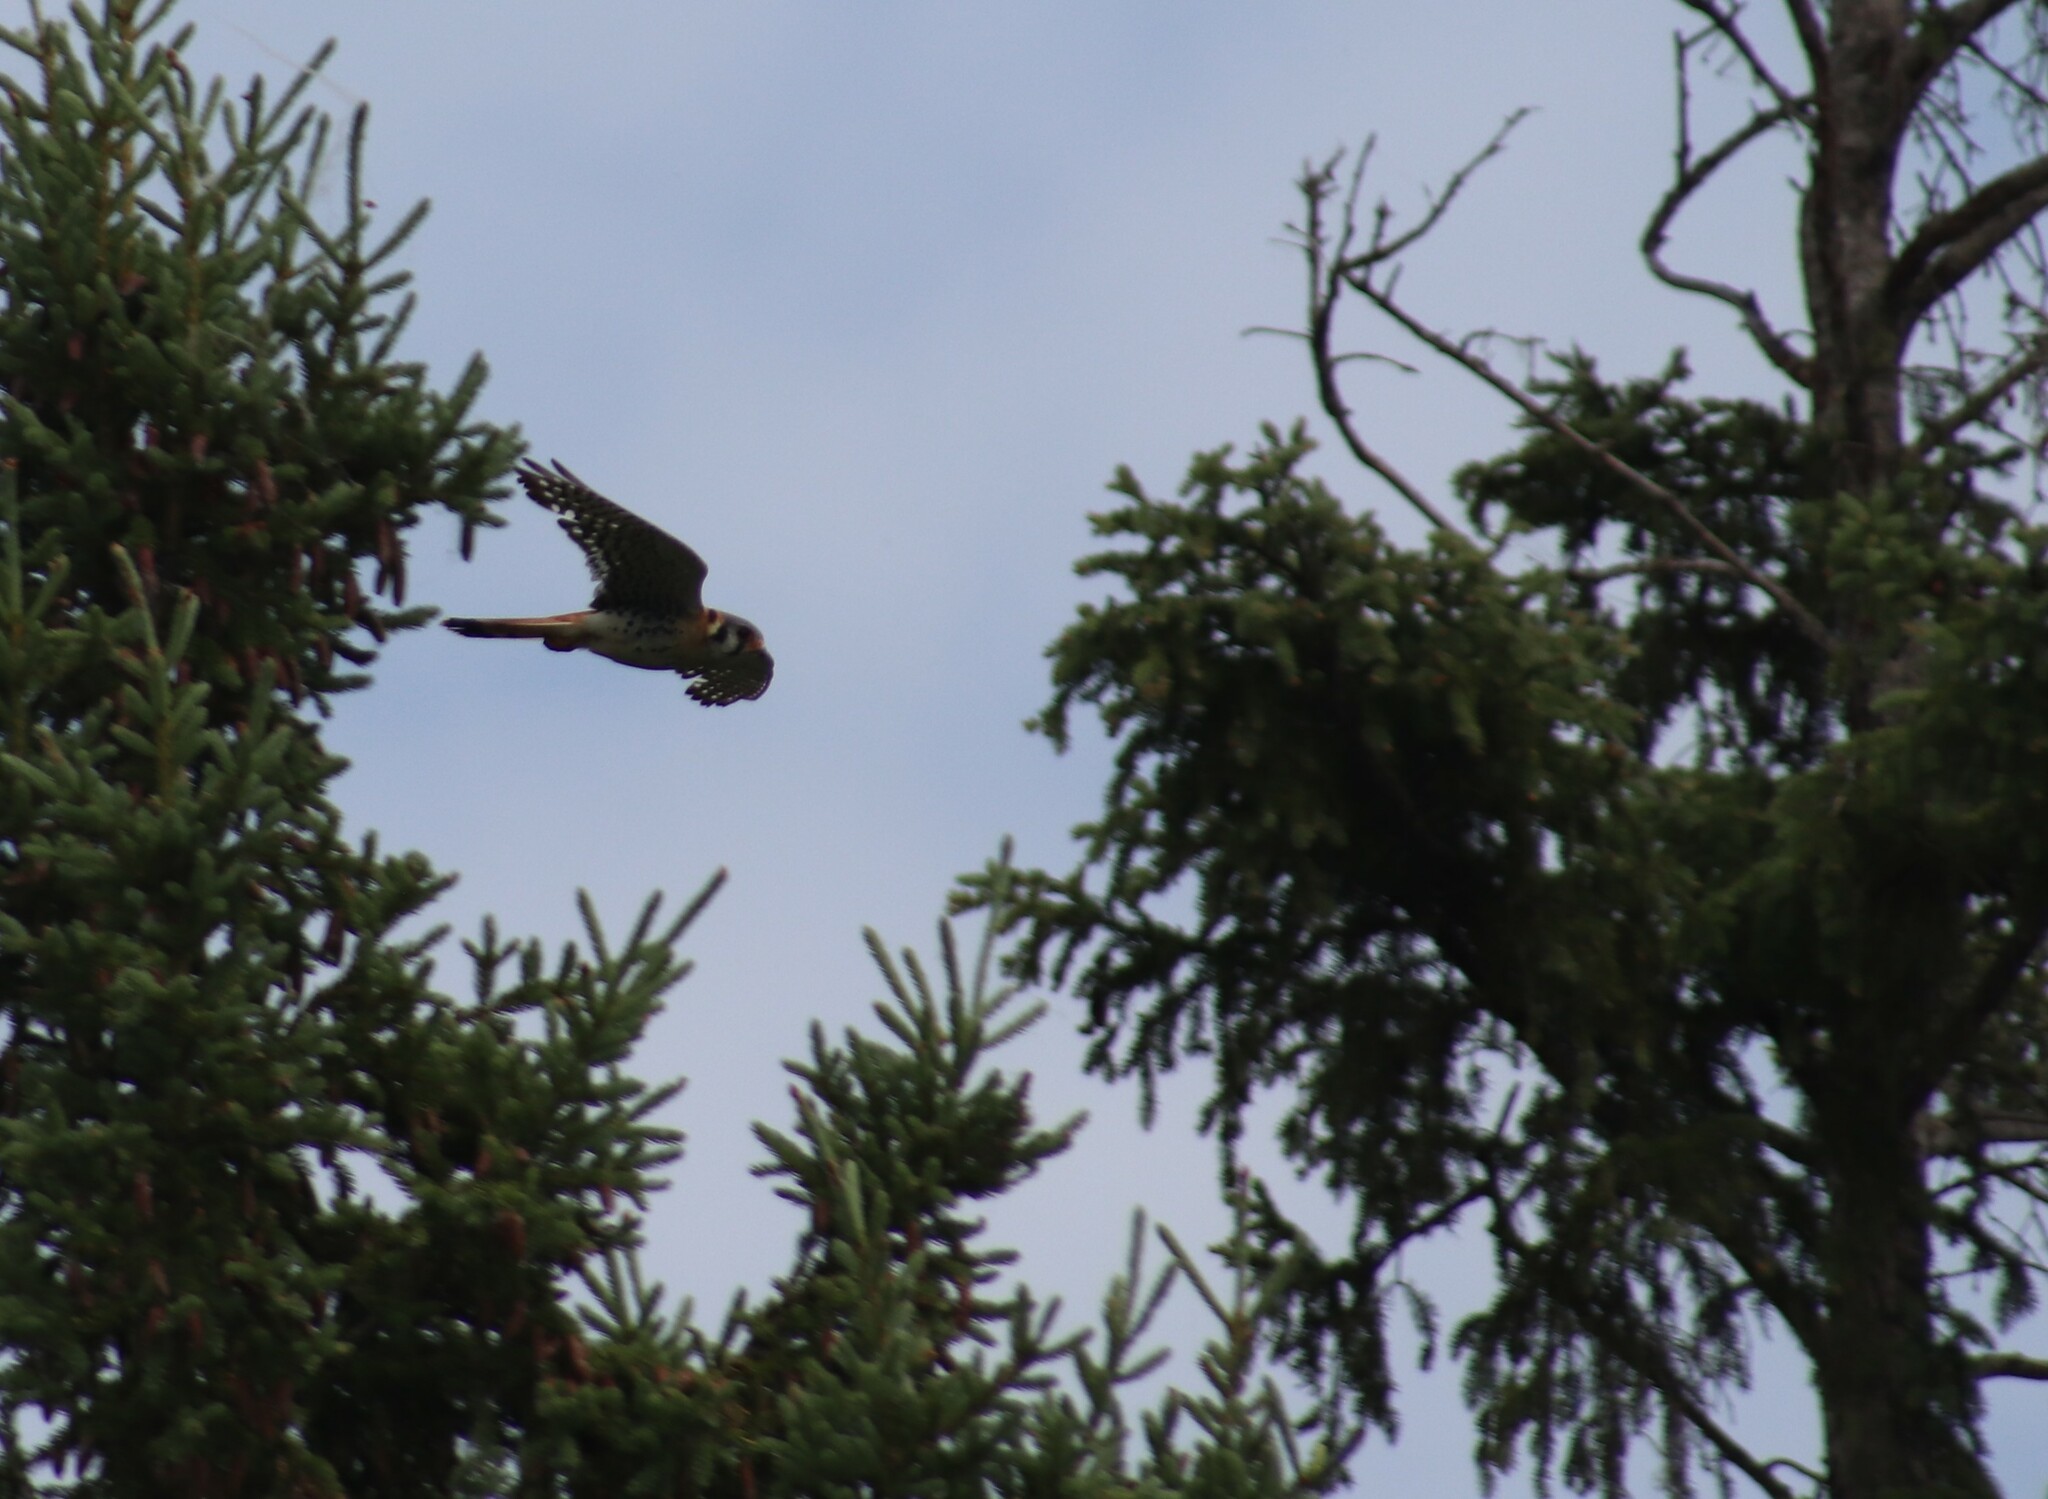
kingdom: Animalia
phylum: Chordata
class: Aves
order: Falconiformes
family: Falconidae
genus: Falco
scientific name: Falco sparverius
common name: American kestrel
